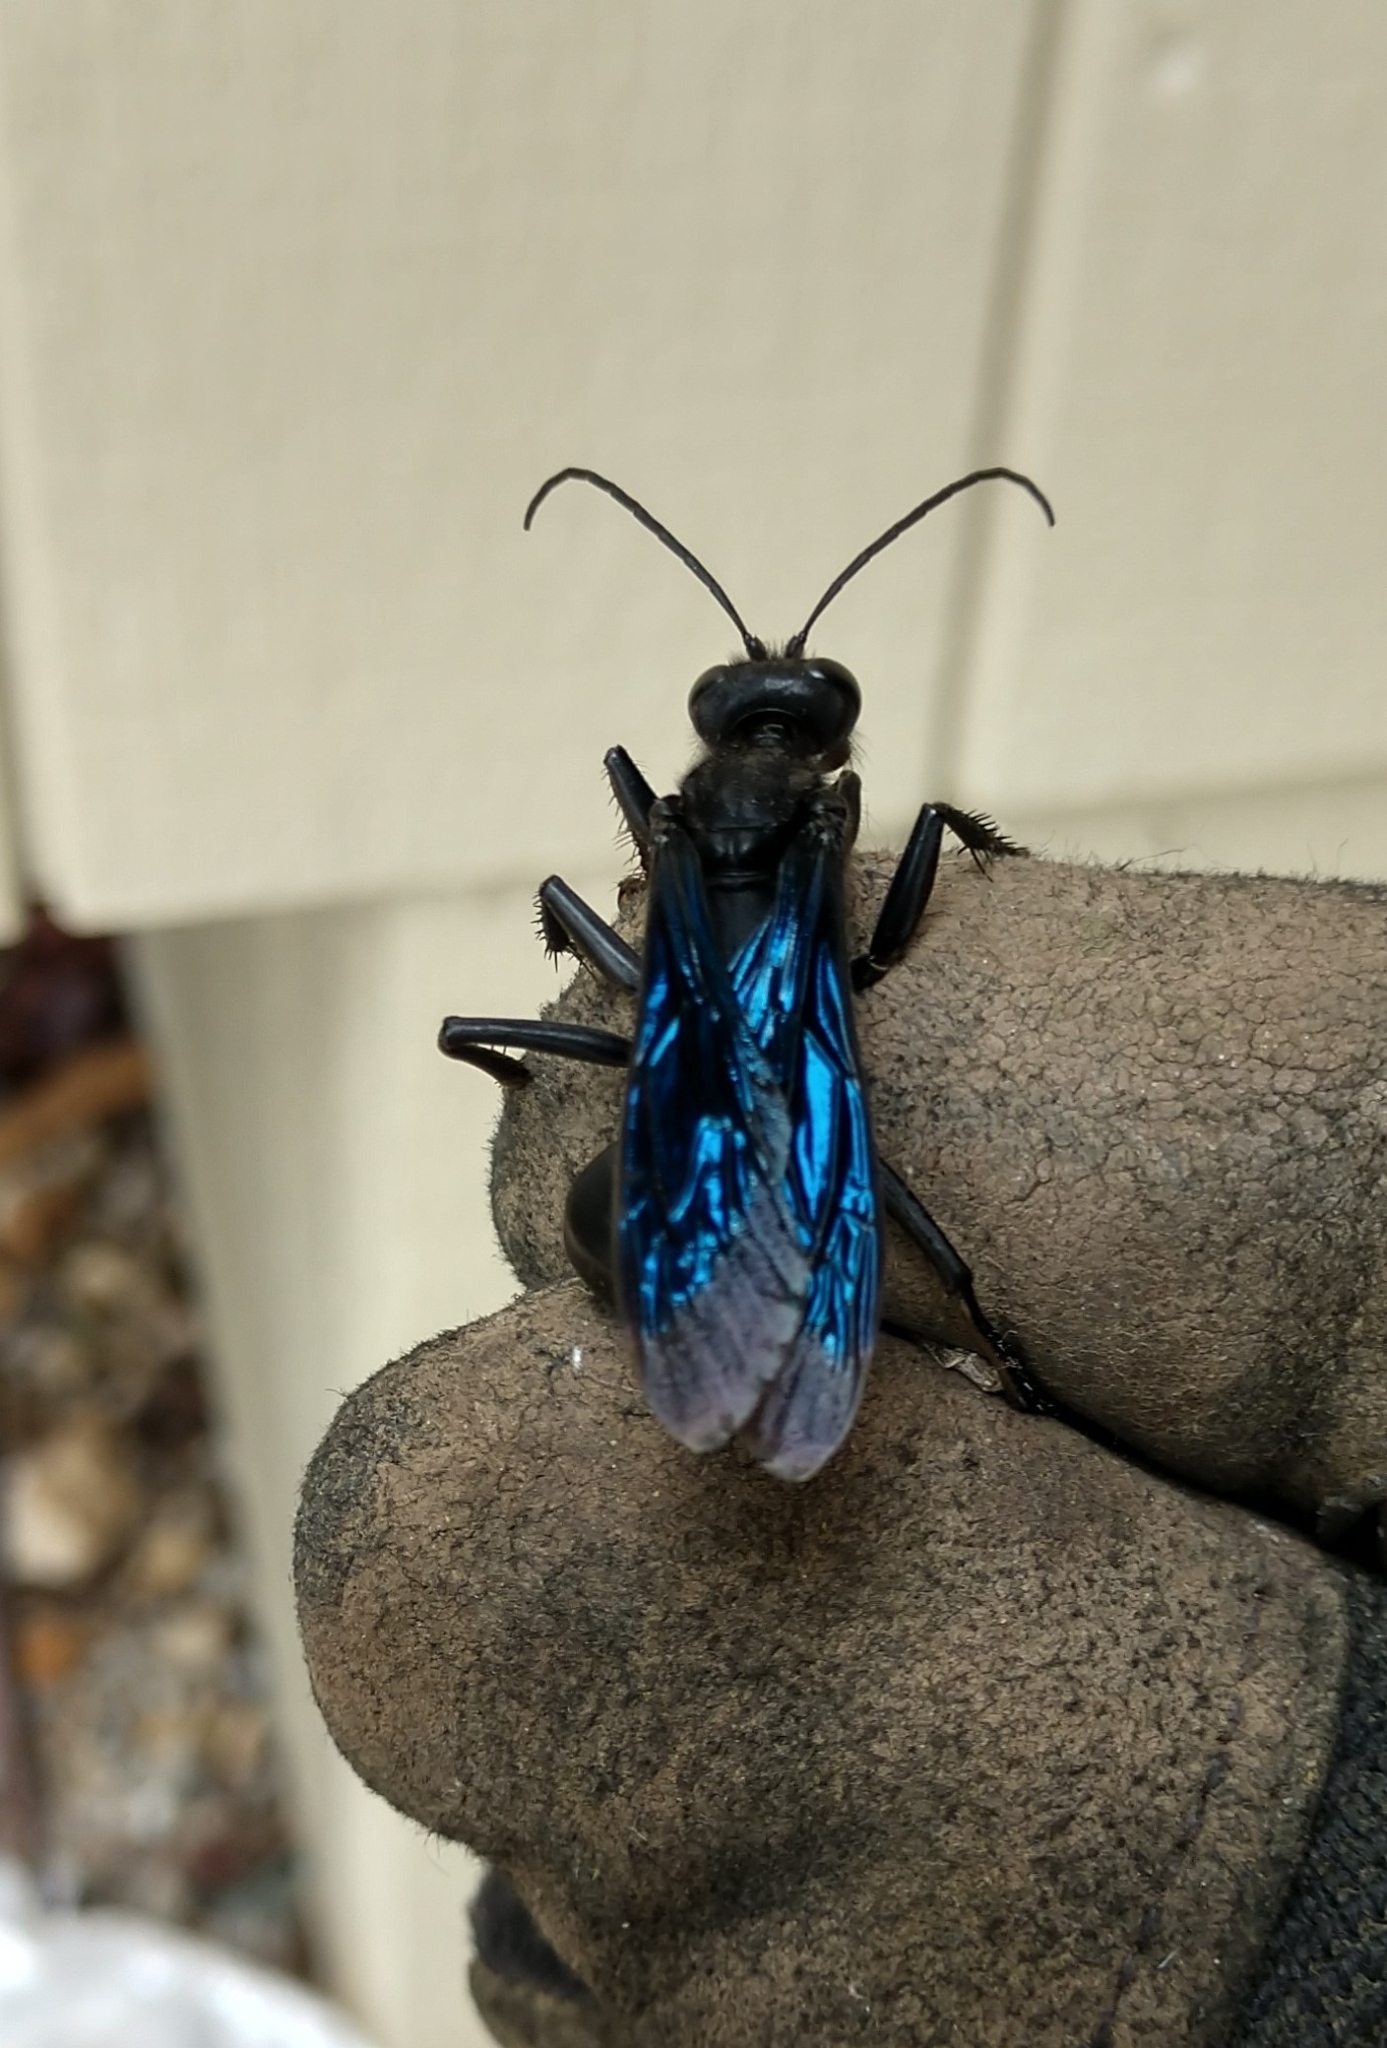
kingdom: Animalia
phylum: Arthropoda
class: Insecta
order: Hymenoptera
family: Sphecidae
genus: Sphex
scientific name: Sphex pensylvanicus
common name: Great black digger wasp
